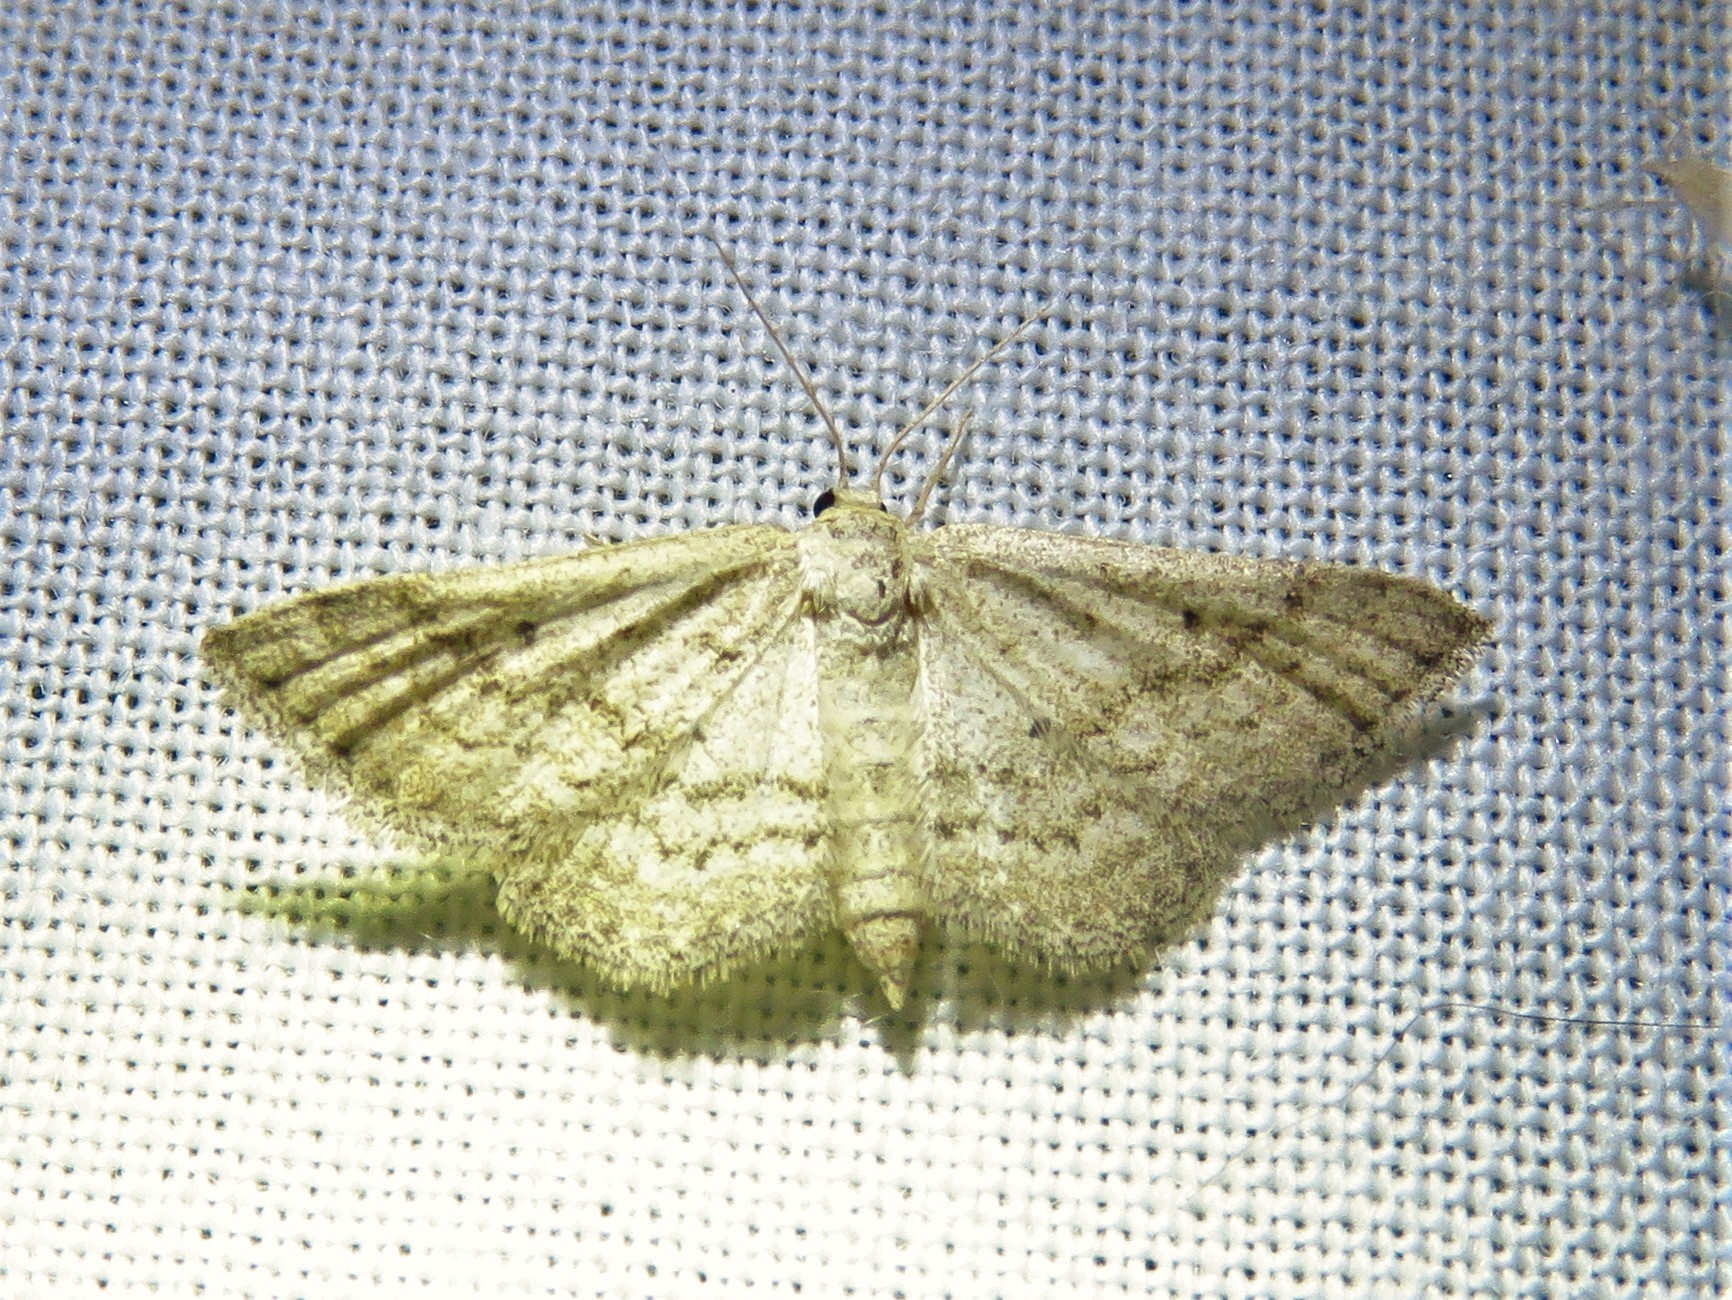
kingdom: Animalia
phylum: Arthropoda
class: Insecta
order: Lepidoptera
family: Geometridae
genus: Lobocleta
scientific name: Lobocleta ossularia
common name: Drab brown wave
